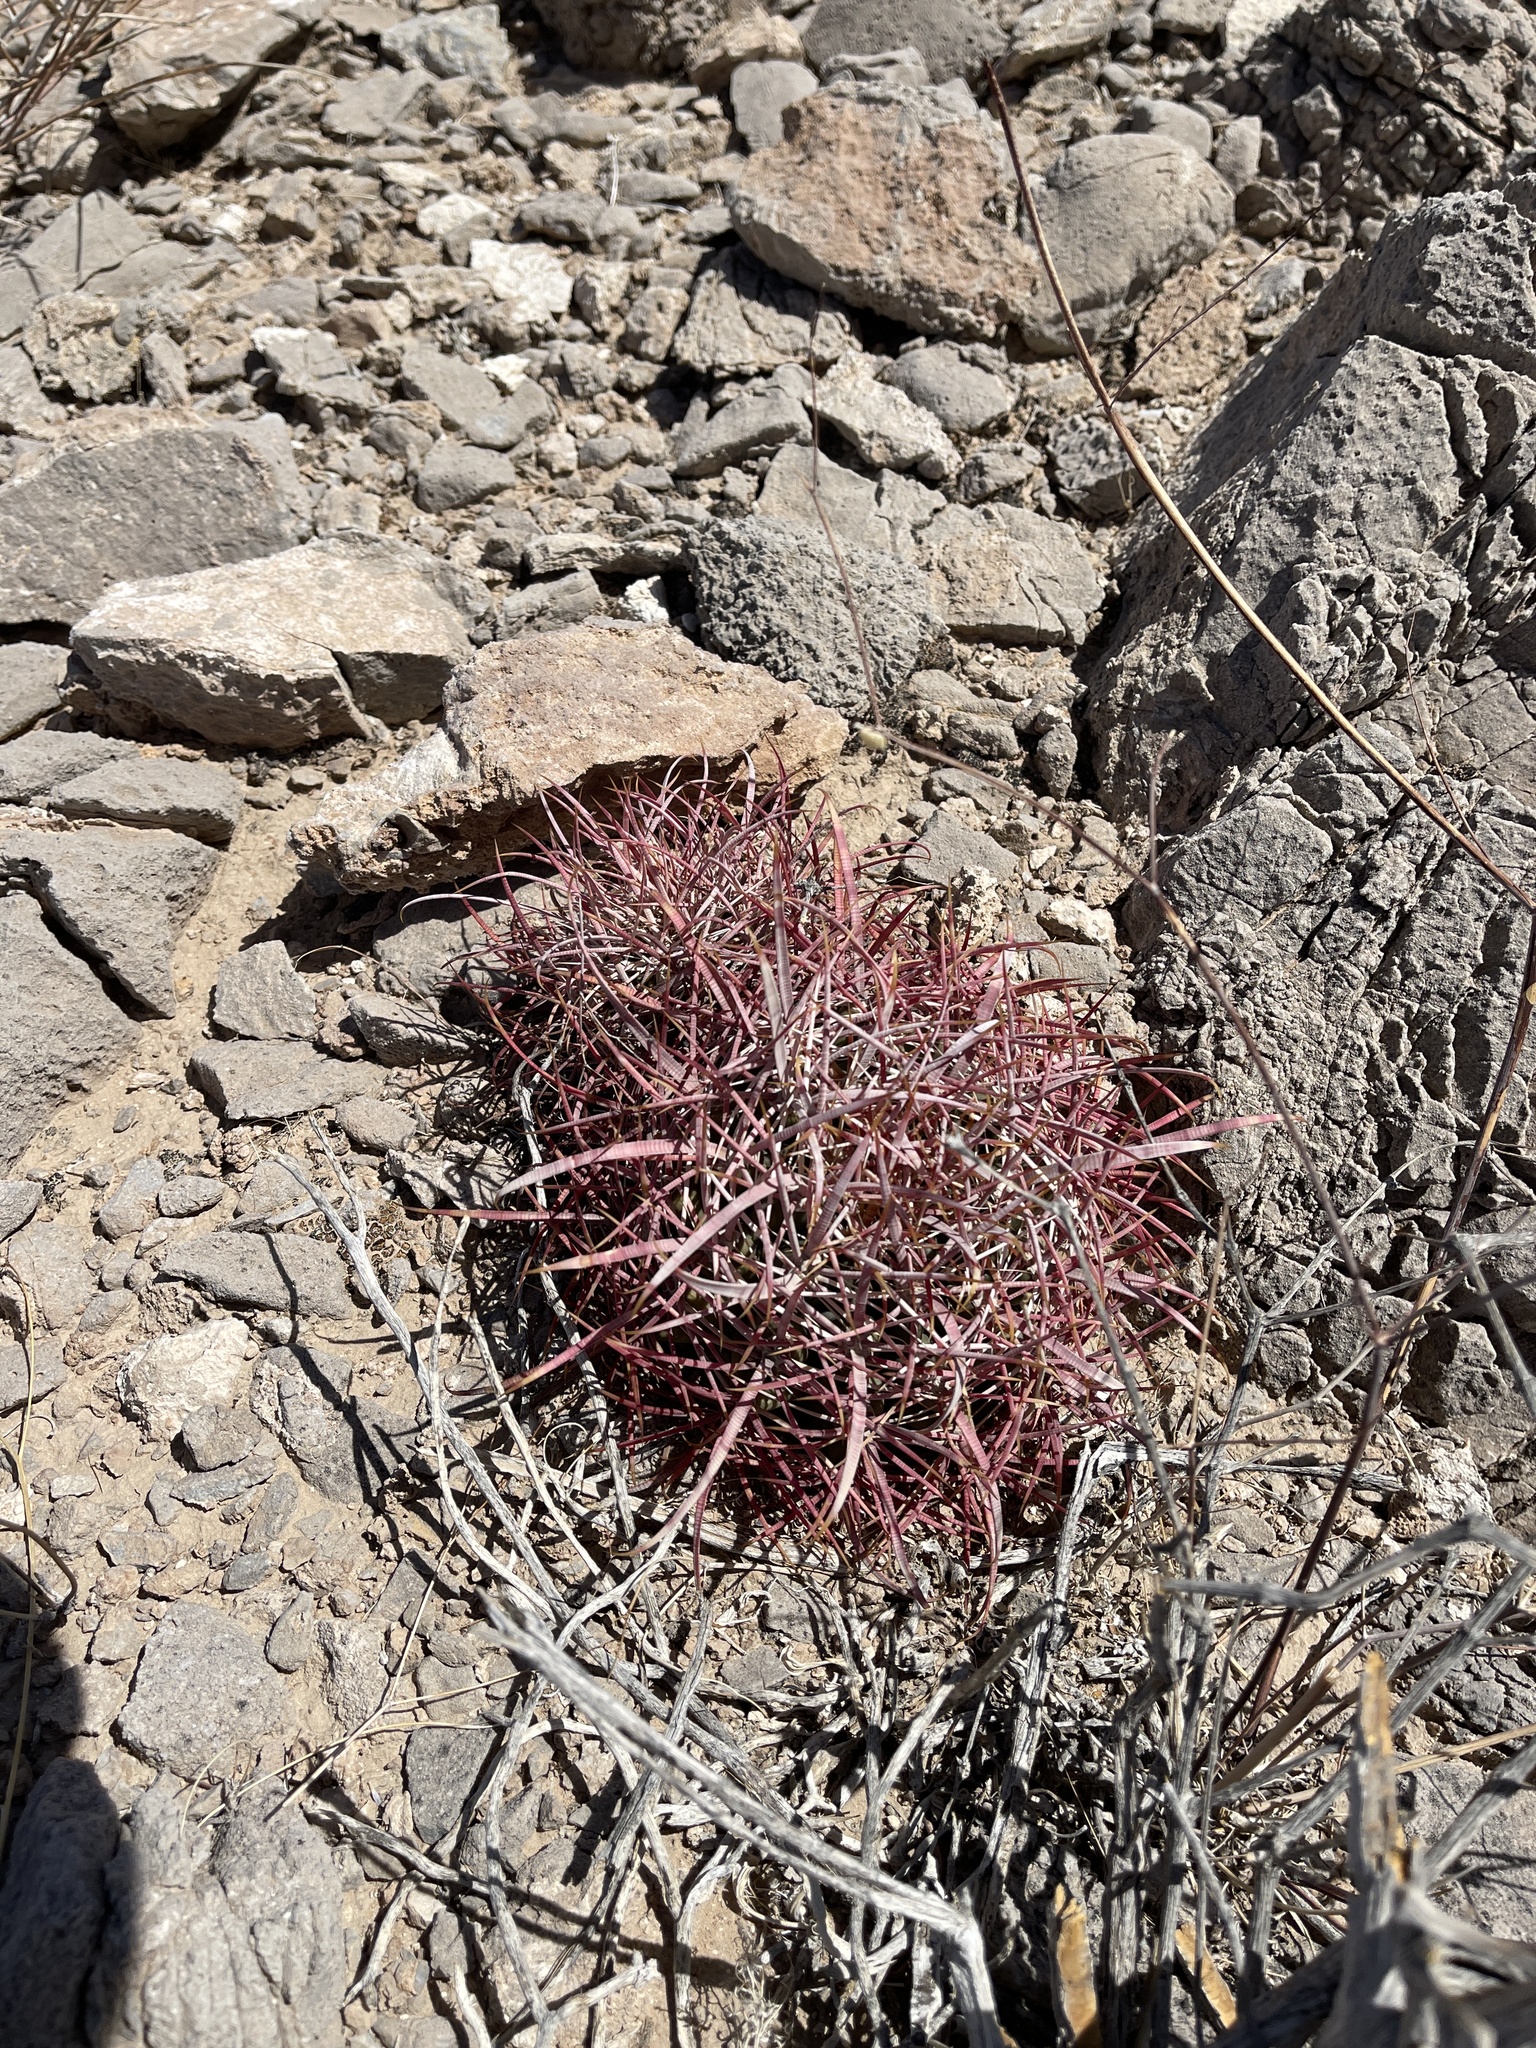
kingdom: Plantae
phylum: Tracheophyta
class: Magnoliopsida
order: Caryophyllales
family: Cactaceae
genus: Ferocactus
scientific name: Ferocactus cylindraceus
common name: California barrel cactus
